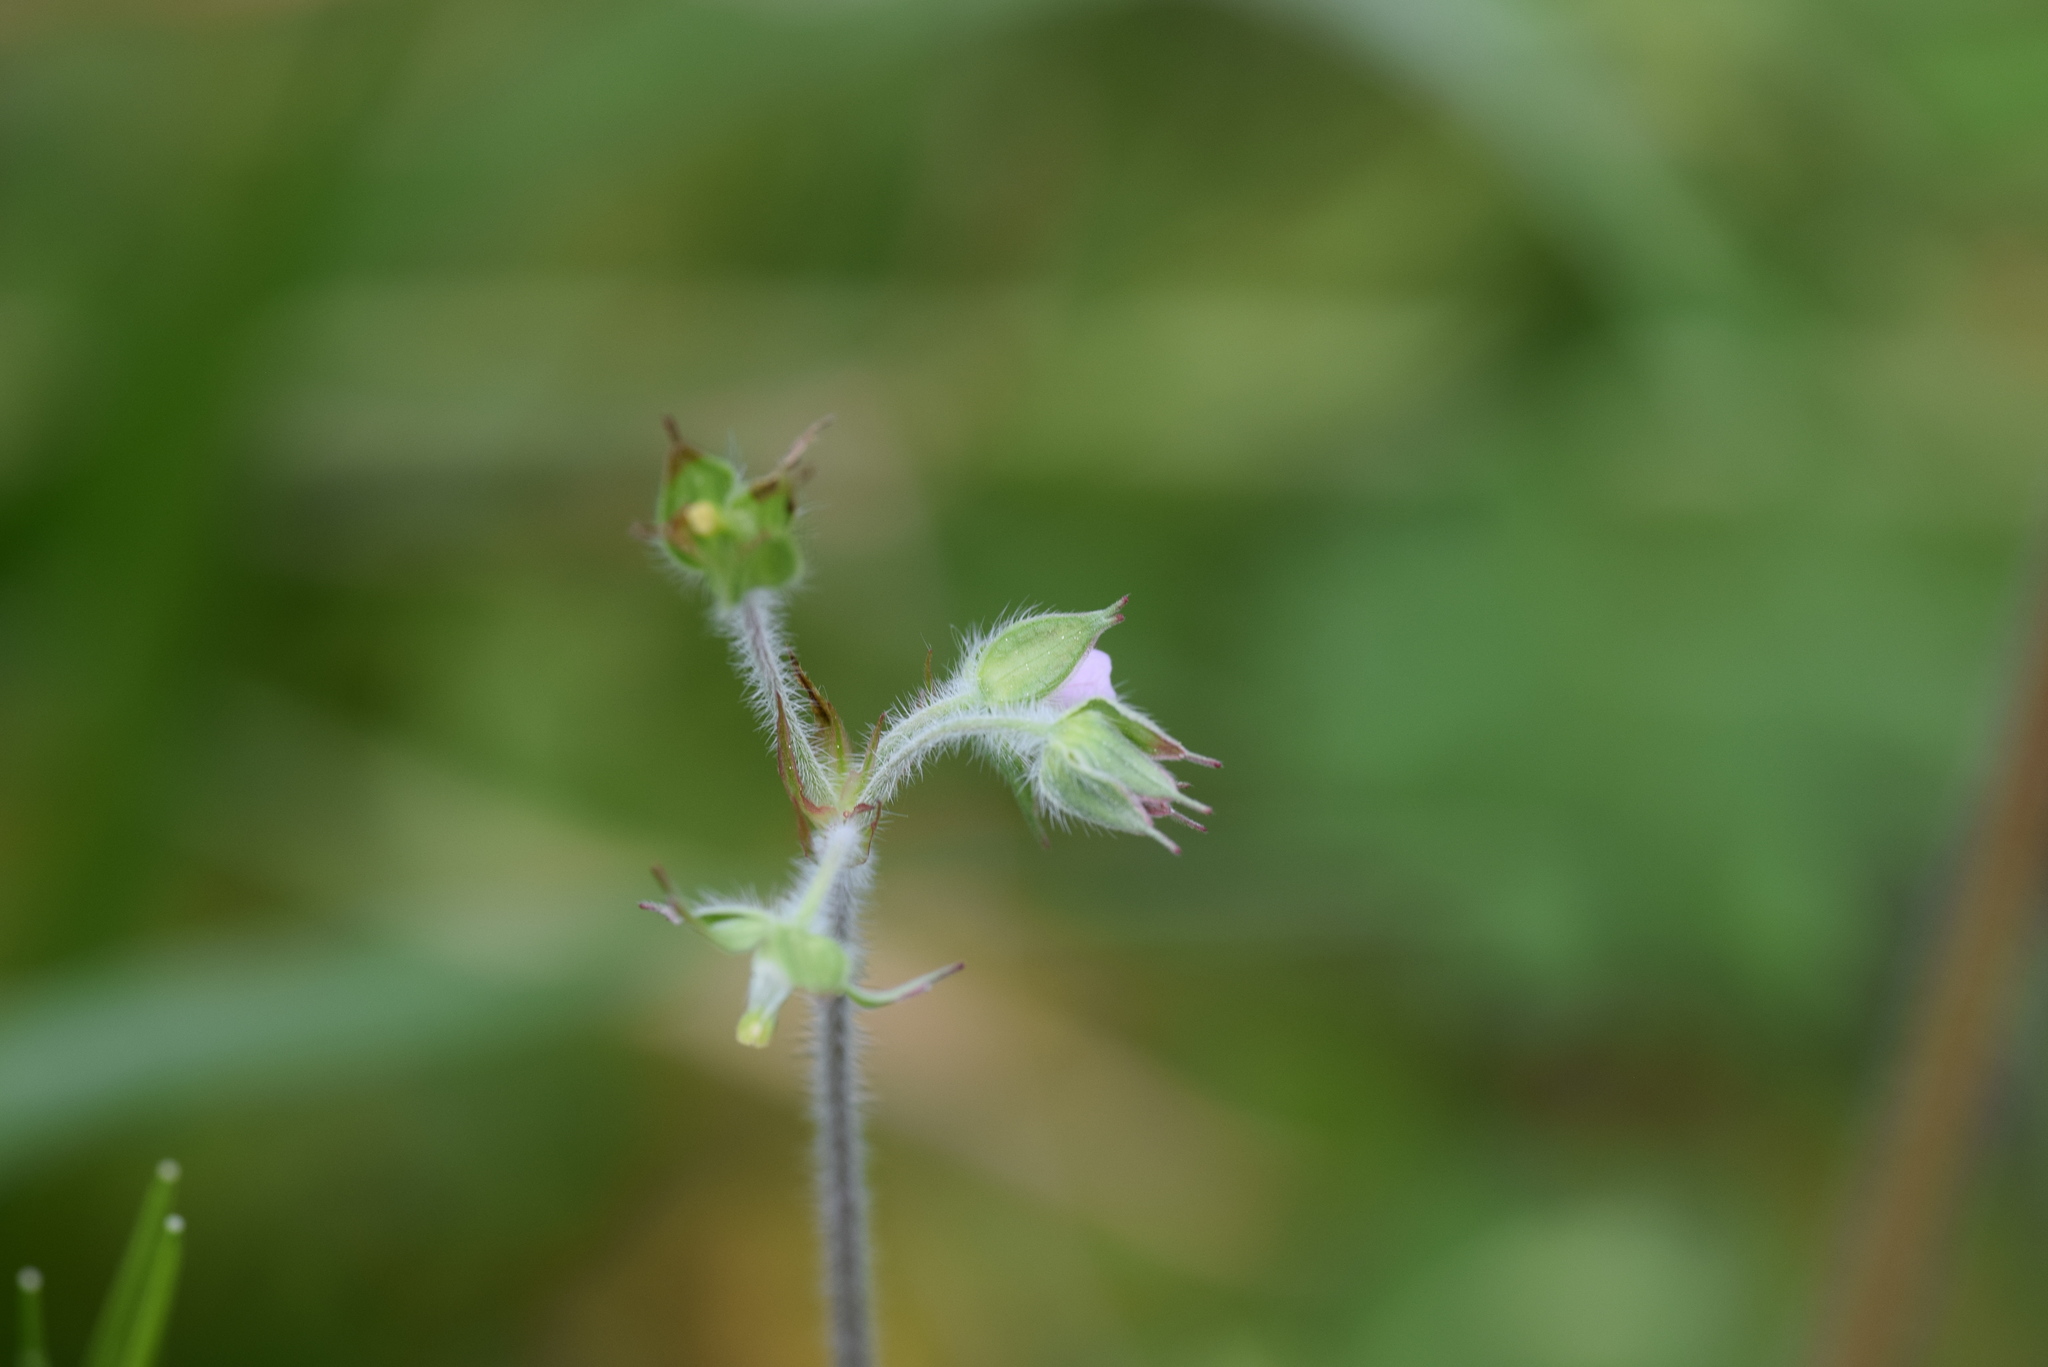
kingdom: Plantae
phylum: Tracheophyta
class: Magnoliopsida
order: Geraniales
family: Geraniaceae
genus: Geranium
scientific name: Geranium carolinianum
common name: Carolina crane's-bill
